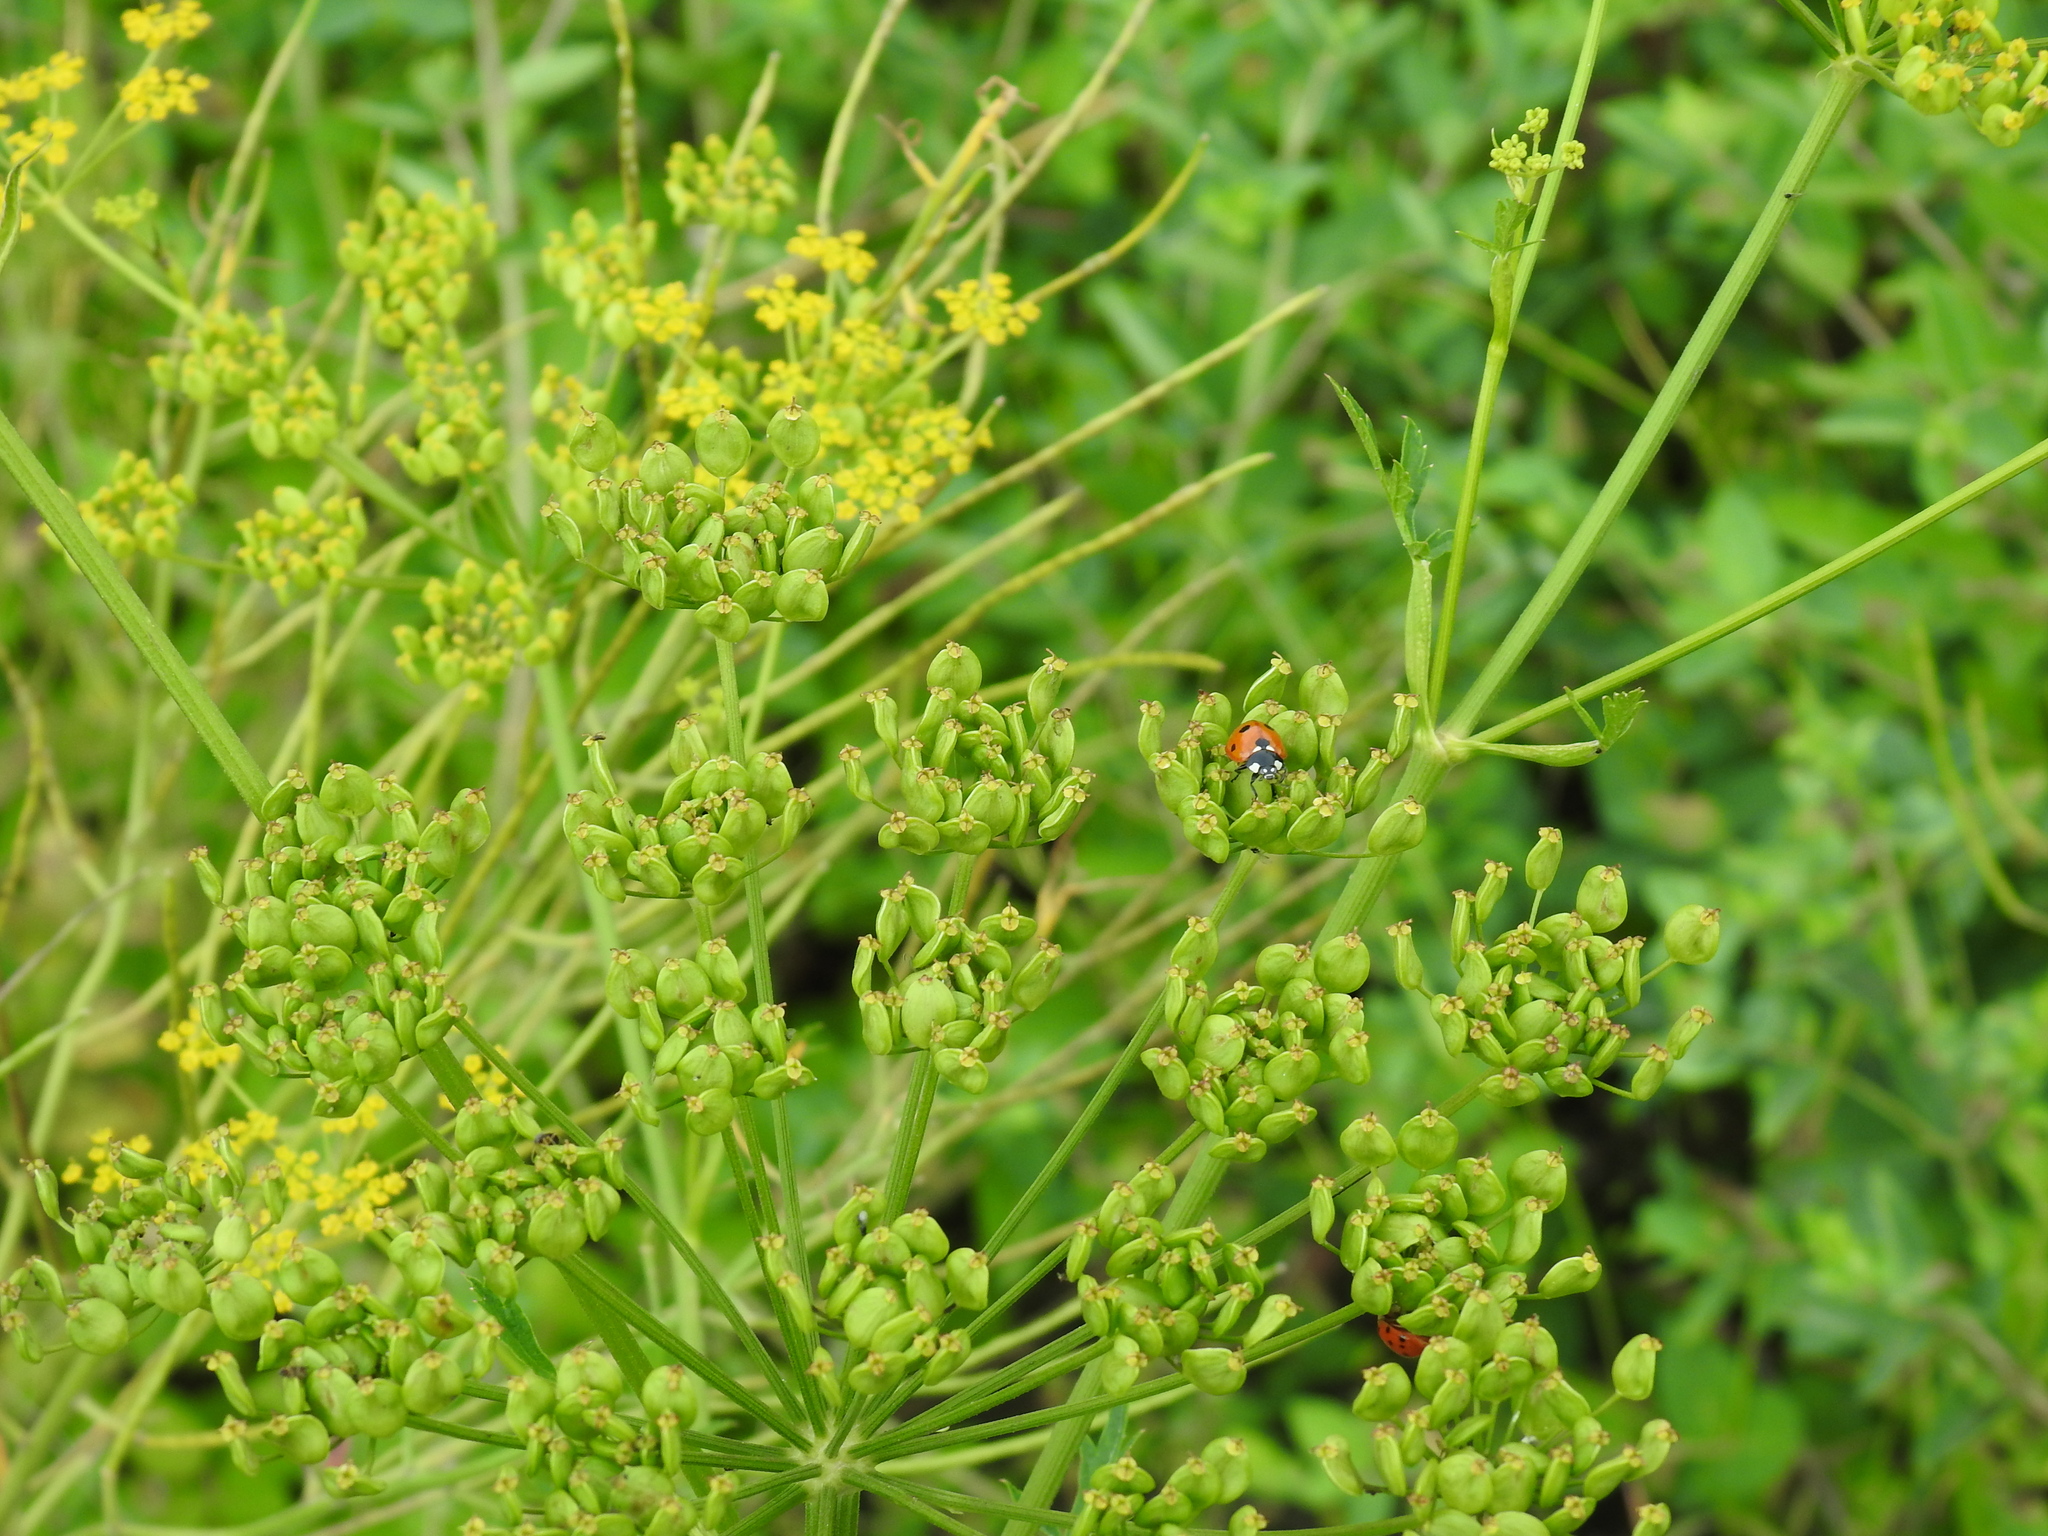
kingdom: Animalia
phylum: Arthropoda
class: Insecta
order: Coleoptera
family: Coccinellidae
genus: Coccinella
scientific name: Coccinella septempunctata
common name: Sevenspotted lady beetle
